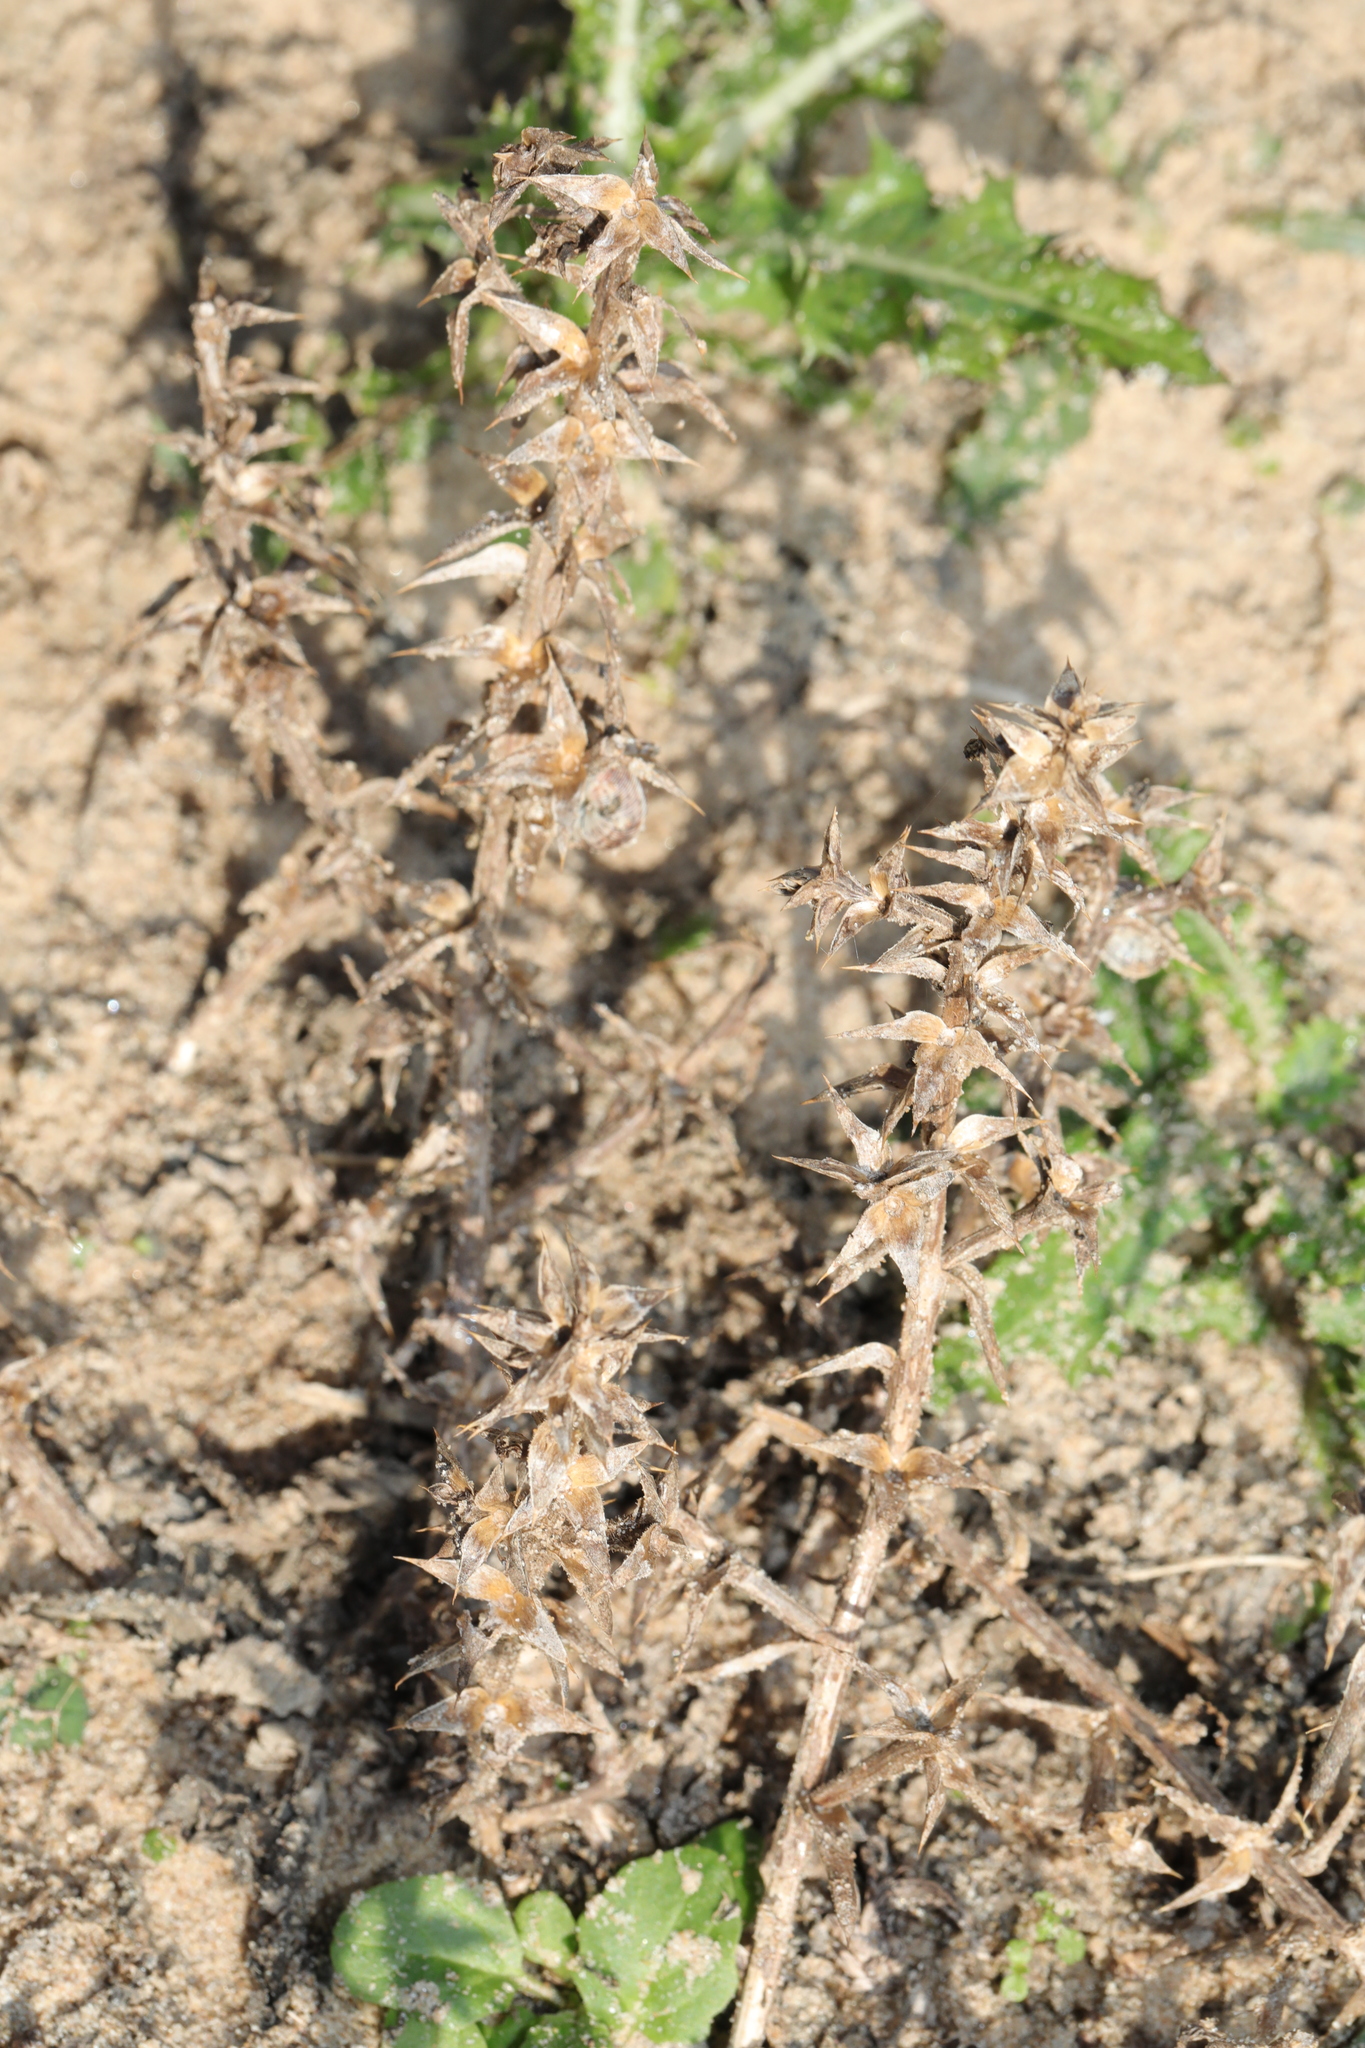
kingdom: Plantae
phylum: Tracheophyta
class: Magnoliopsida
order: Caryophyllales
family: Amaranthaceae
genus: Salsola
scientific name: Salsola kali
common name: Saltwort
